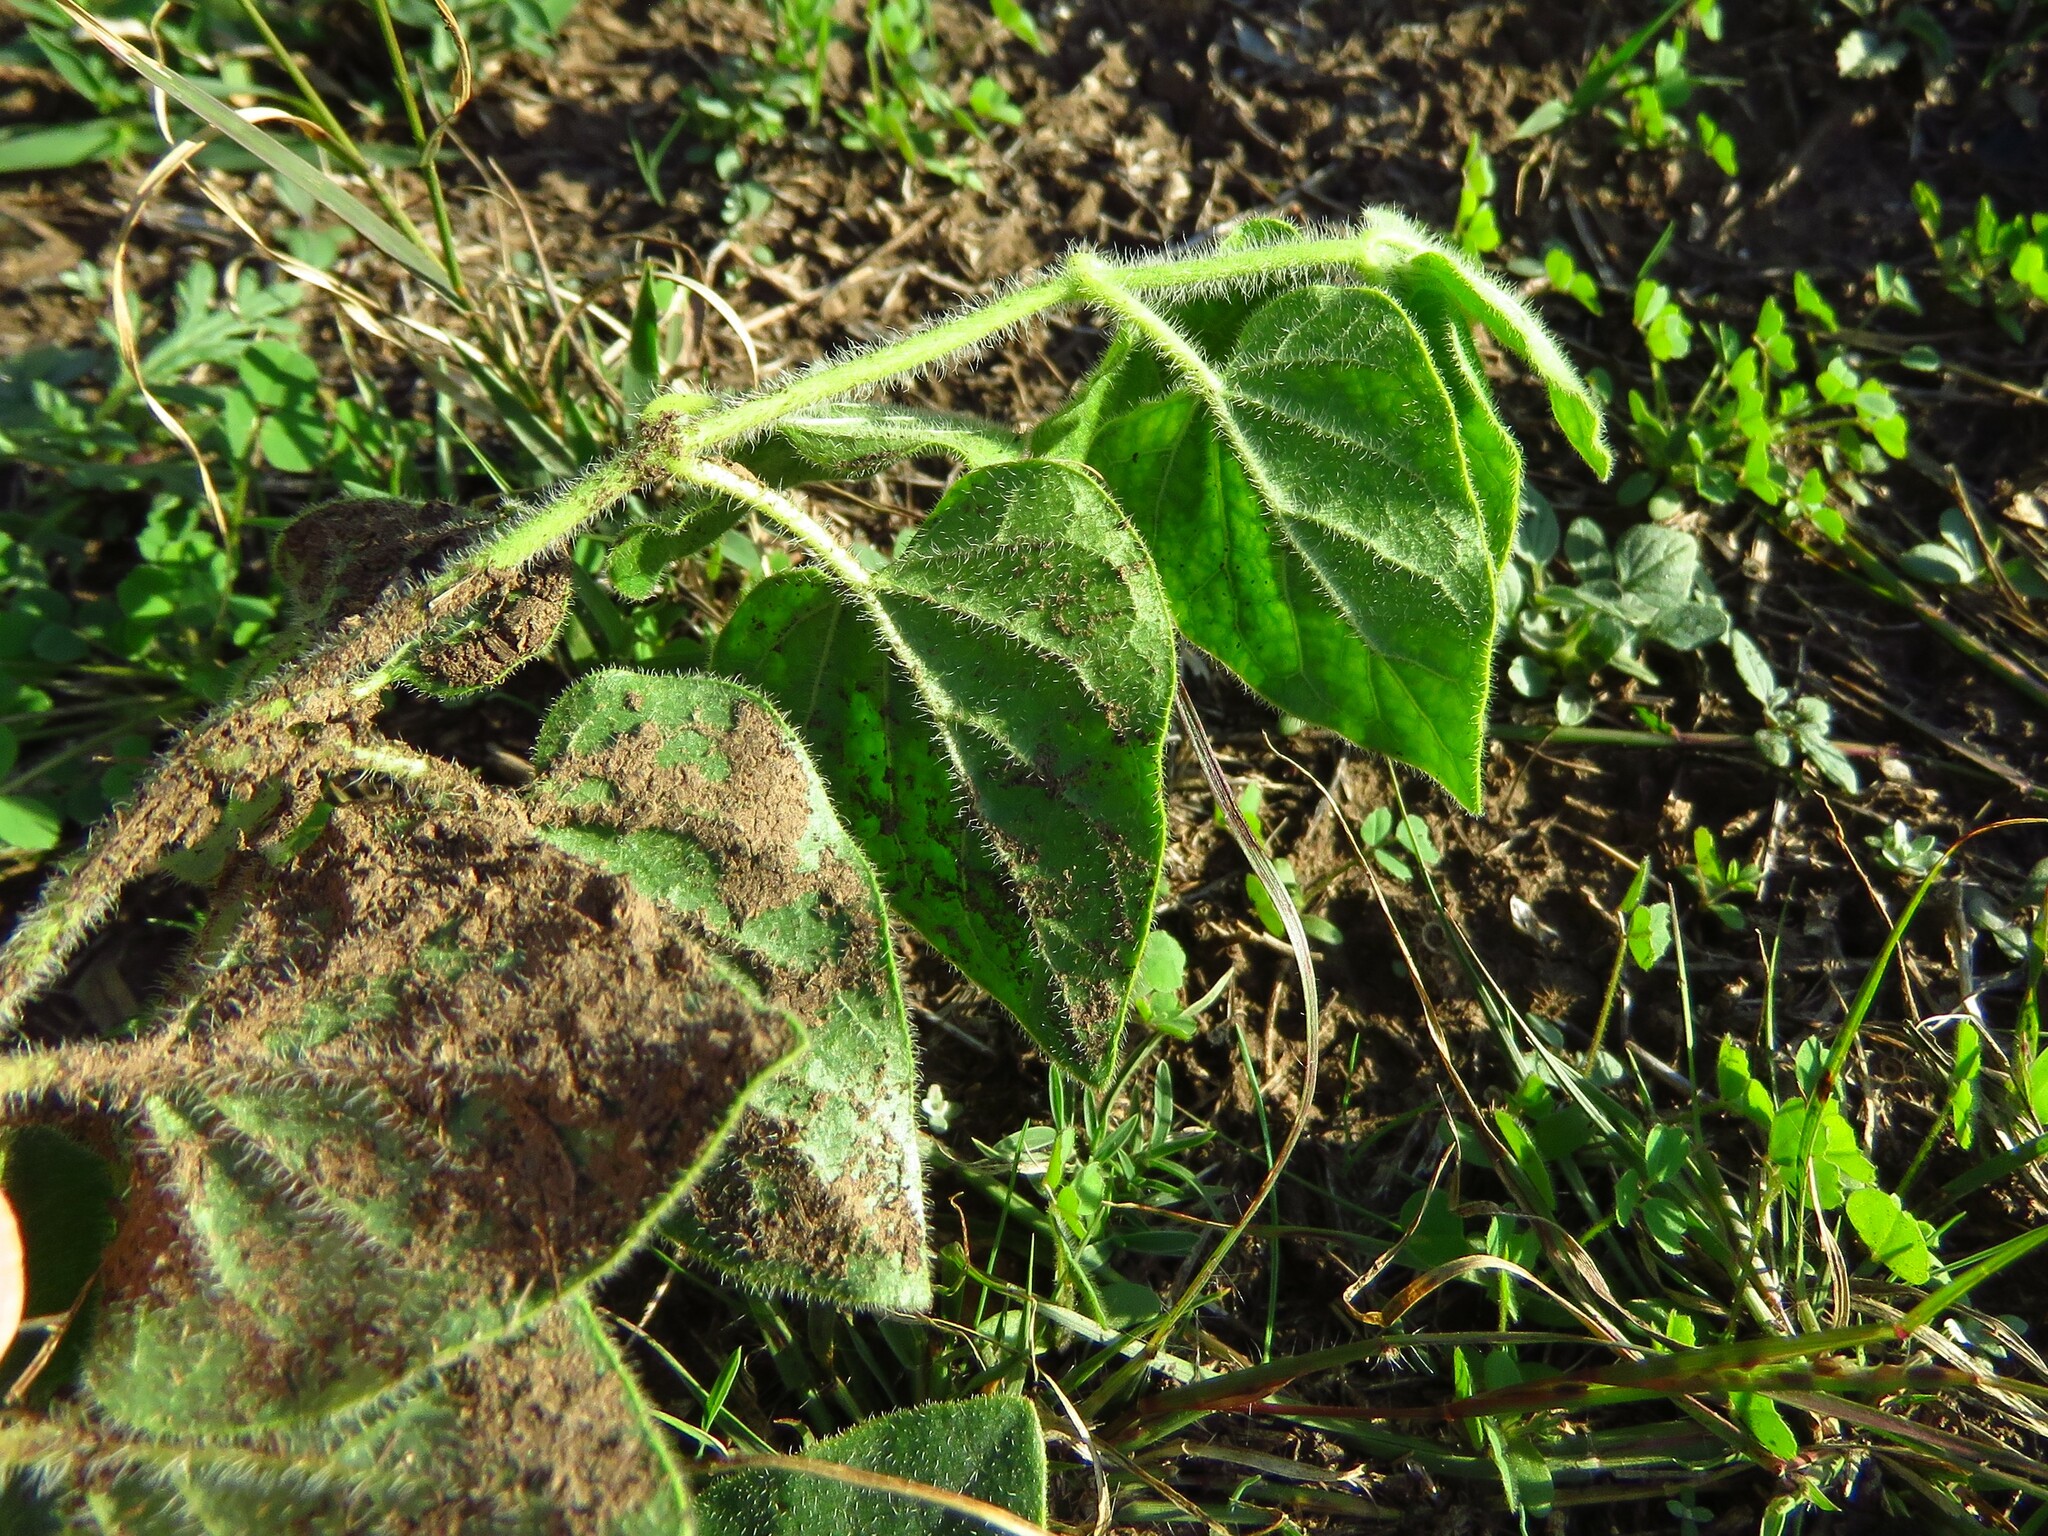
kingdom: Plantae
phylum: Tracheophyta
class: Magnoliopsida
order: Gentianales
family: Apocynaceae
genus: Chthamalia
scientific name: Chthamalia biflora
